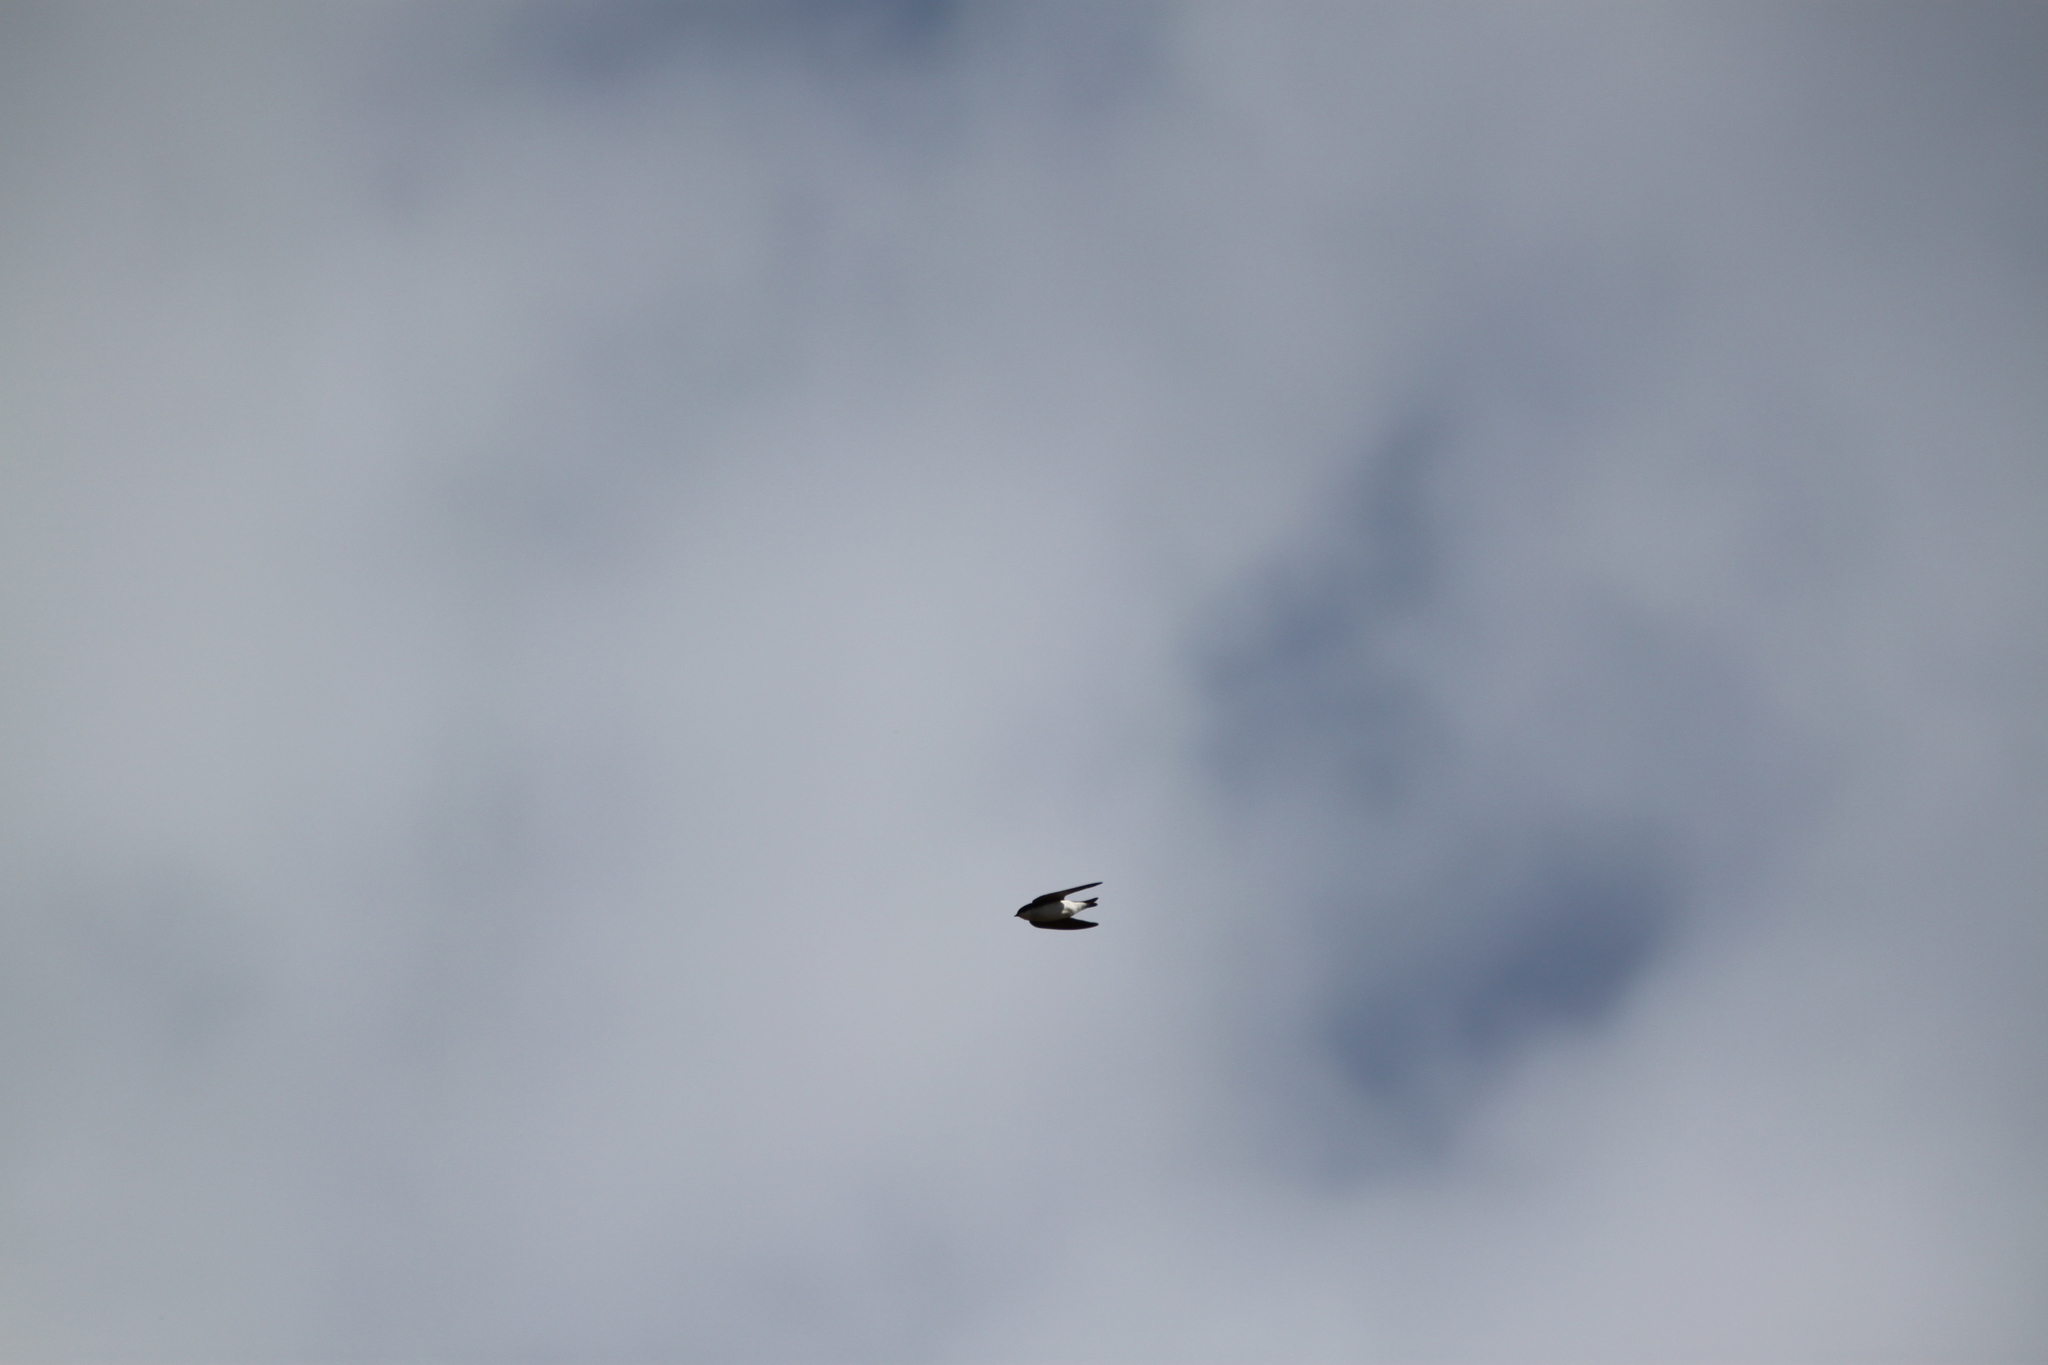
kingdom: Animalia
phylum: Chordata
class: Aves
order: Passeriformes
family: Hirundinidae
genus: Tachycineta
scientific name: Tachycineta bicolor
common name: Tree swallow
